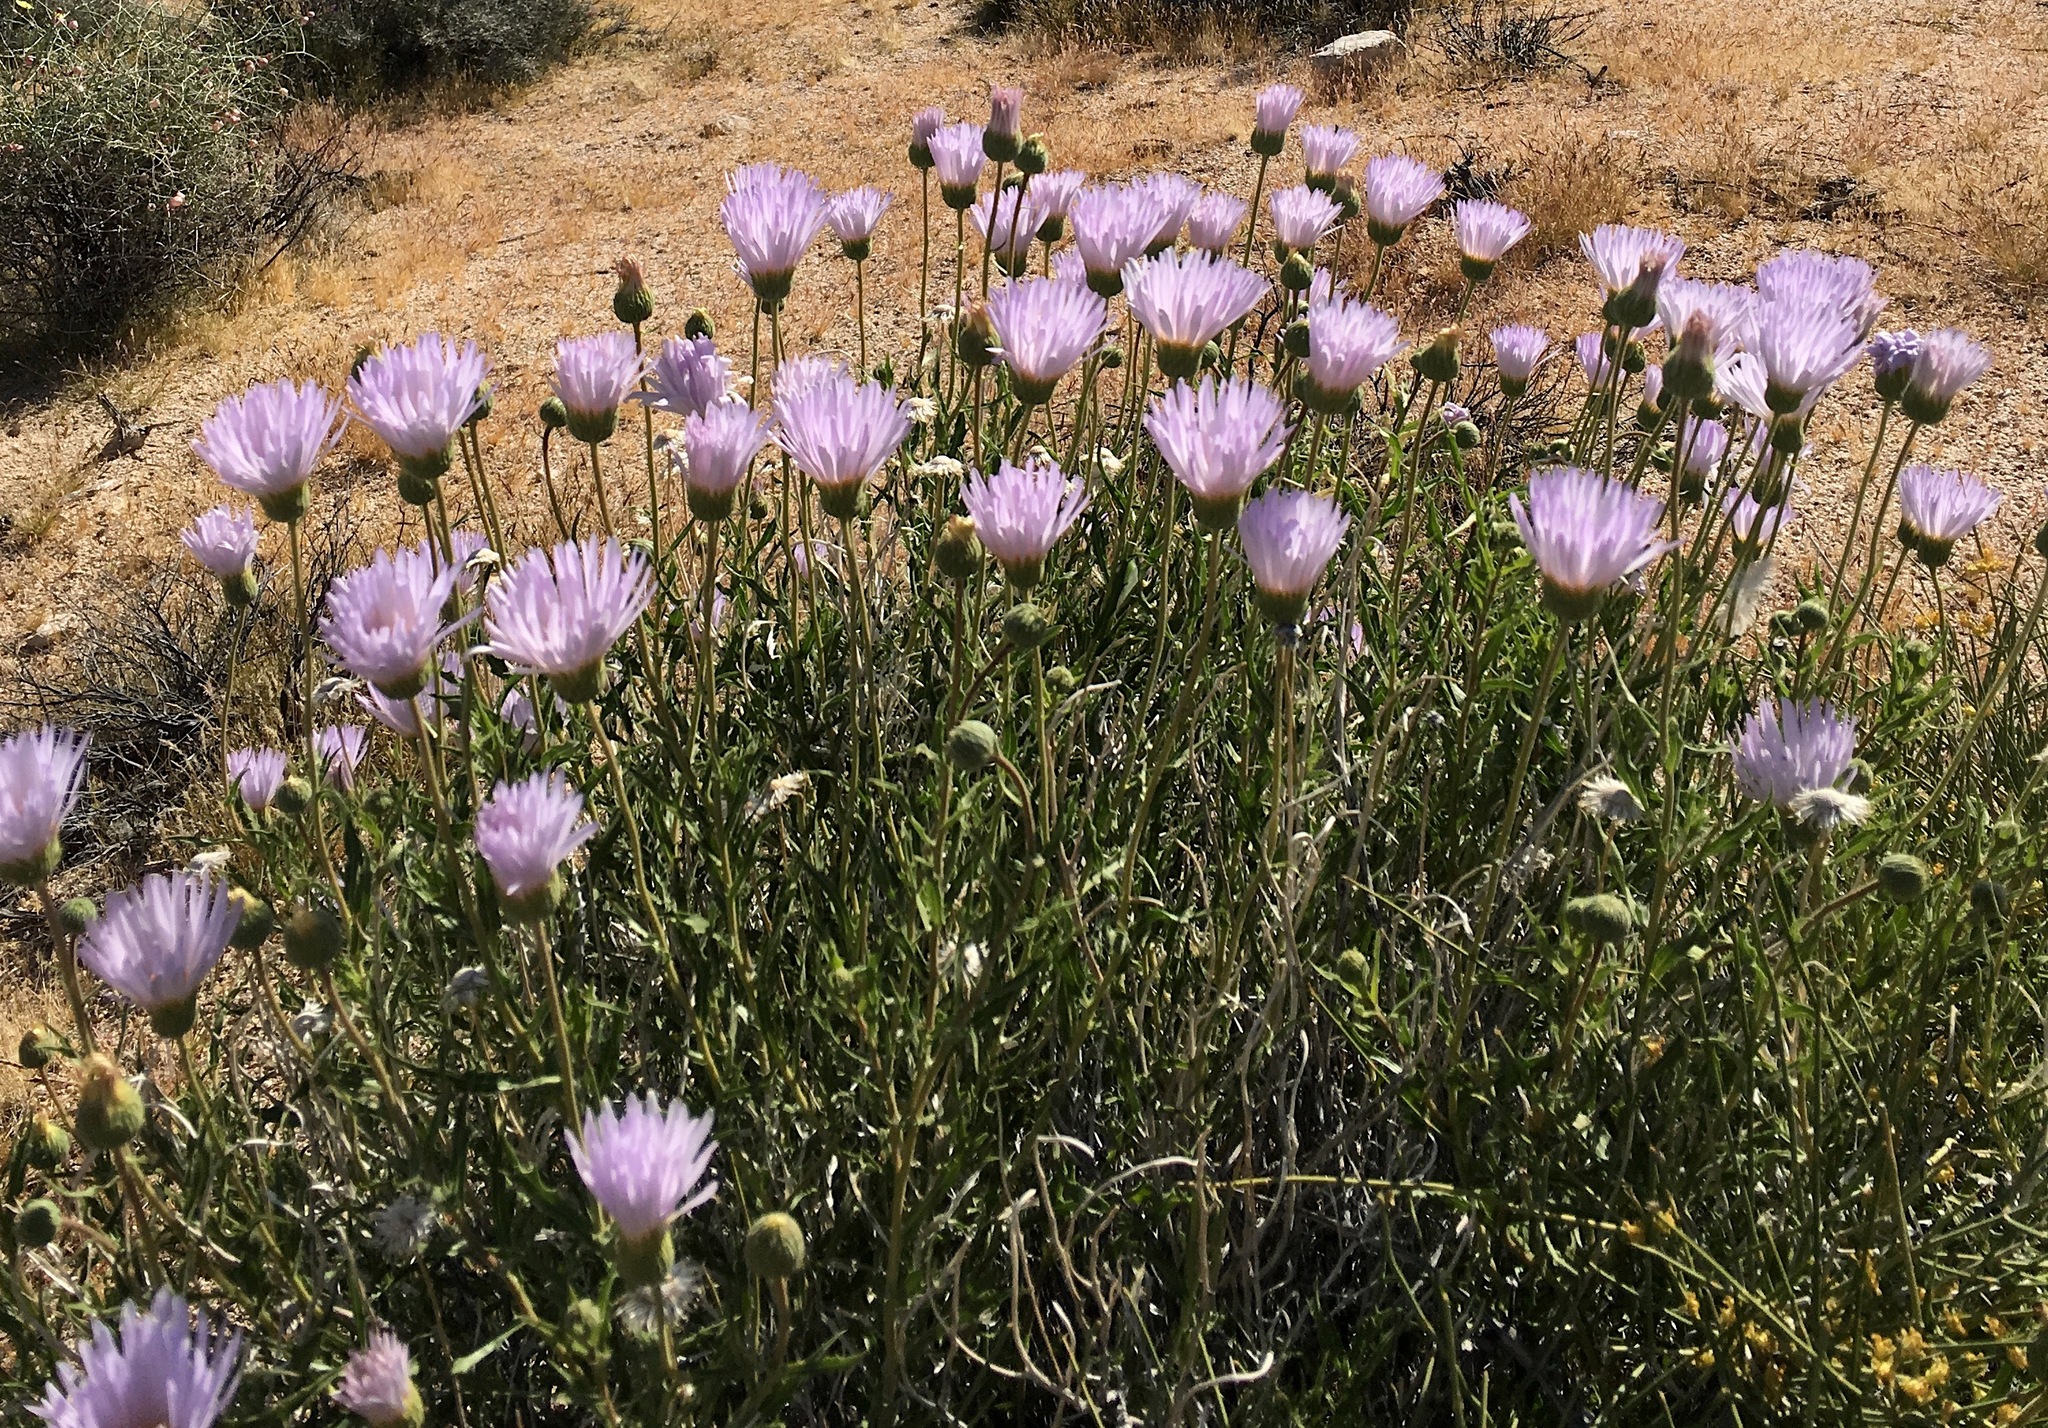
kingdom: Plantae
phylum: Tracheophyta
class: Magnoliopsida
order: Asterales
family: Asteraceae
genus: Xylorhiza
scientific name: Xylorhiza tortifolia
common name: Hurt-leaf woody-aster
